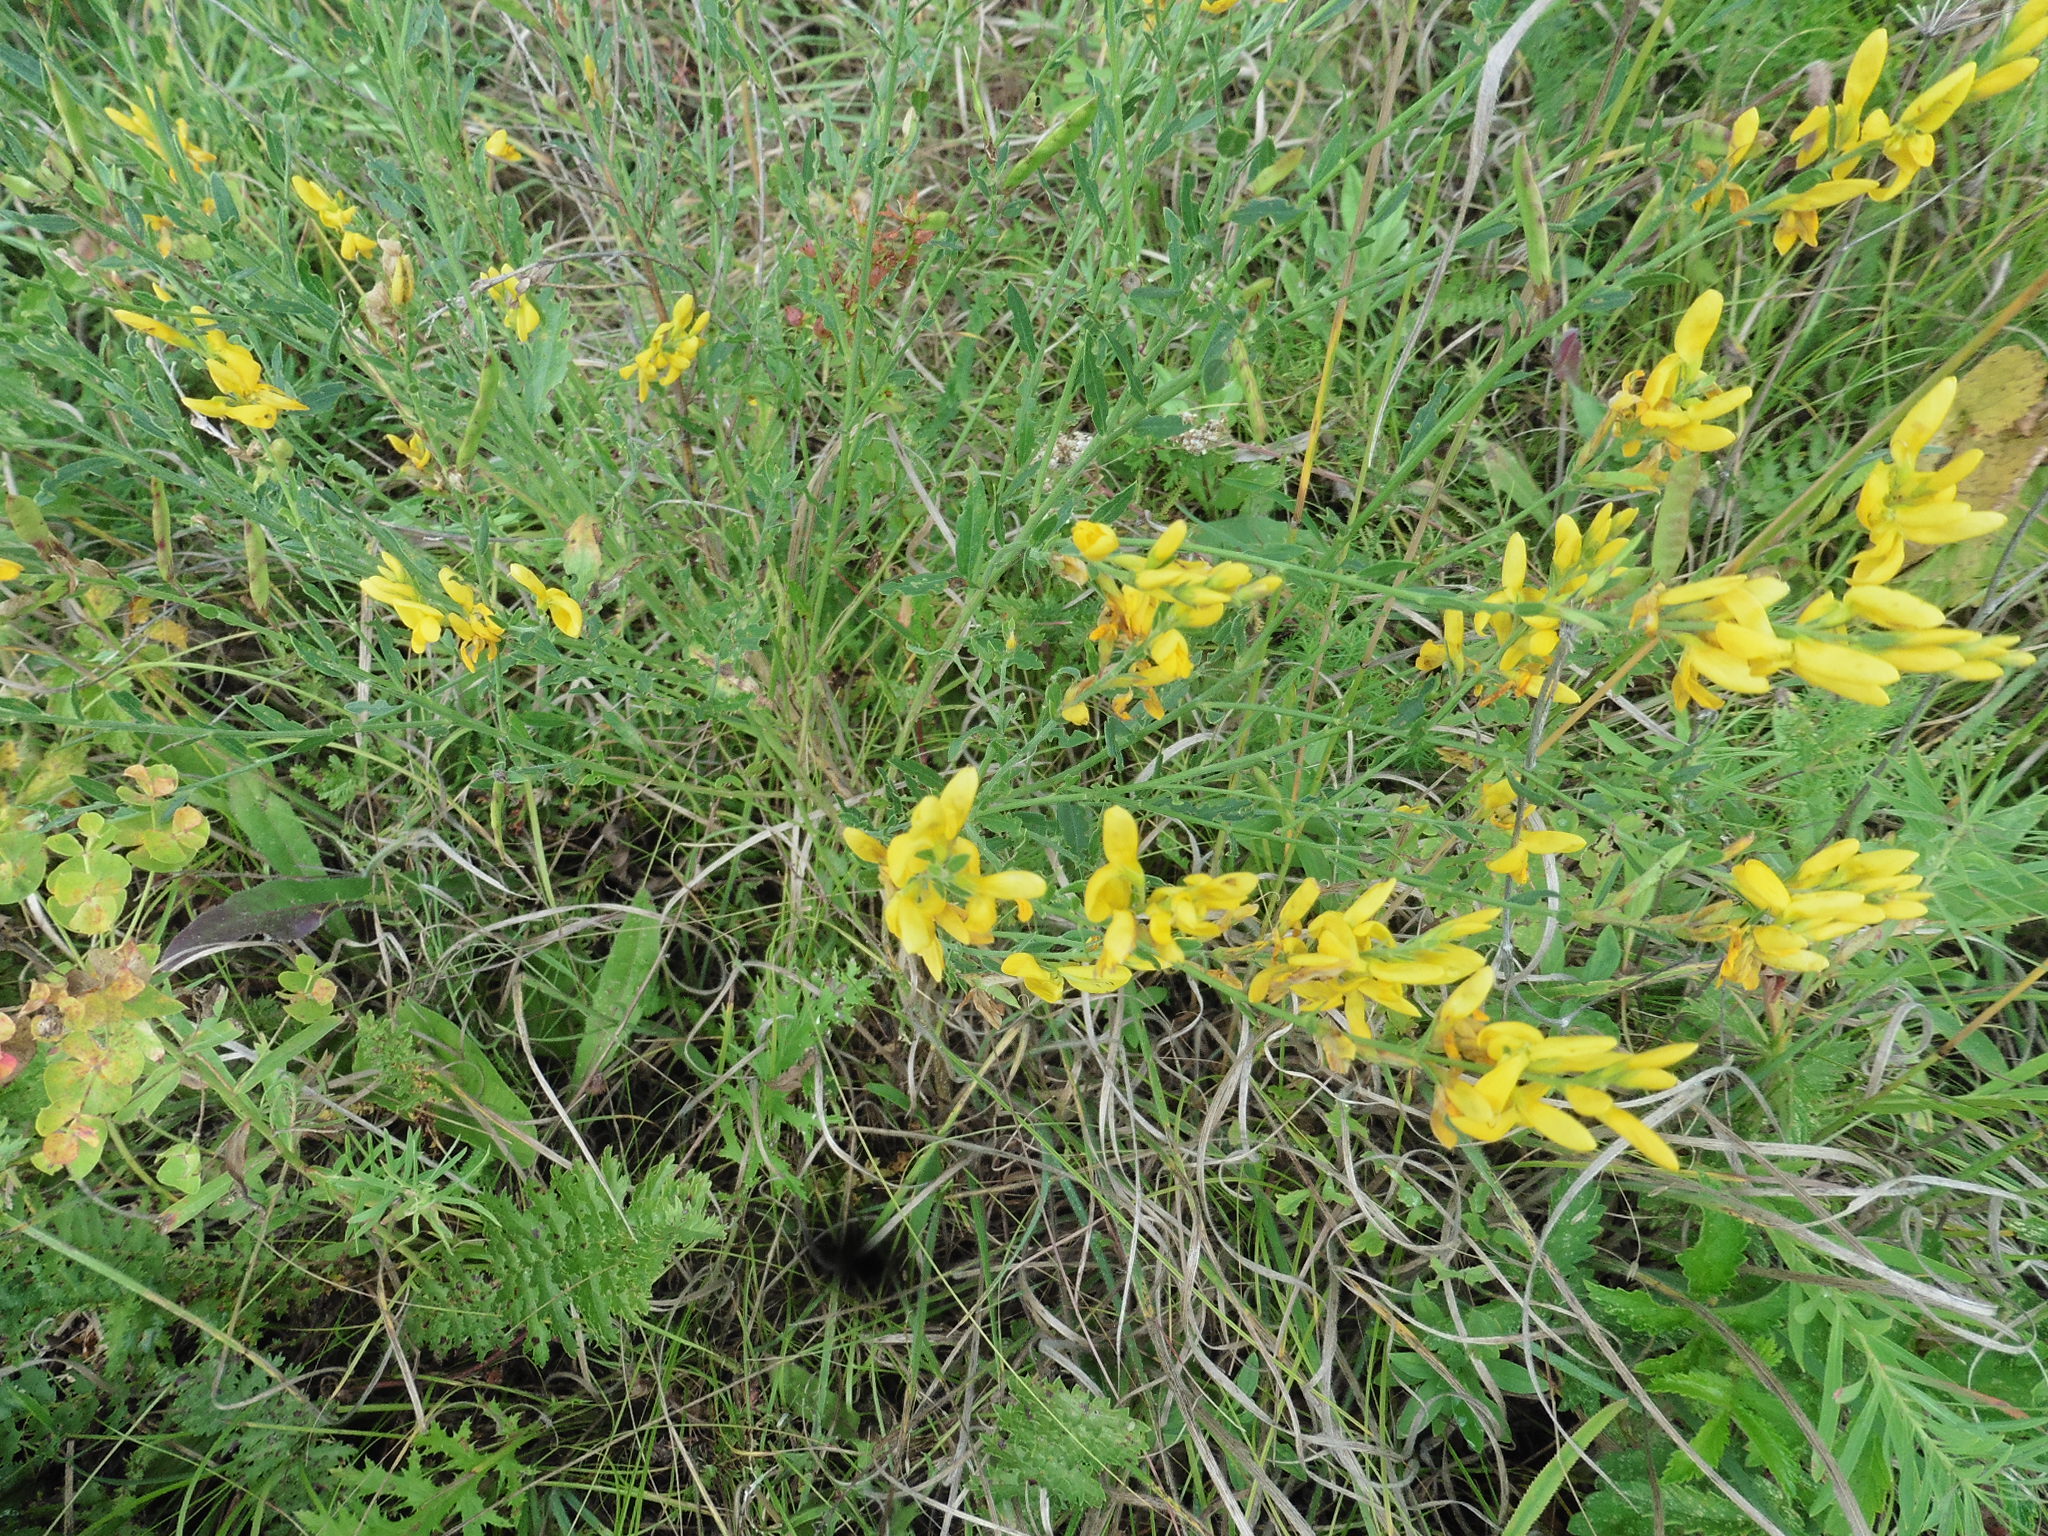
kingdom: Plantae
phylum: Tracheophyta
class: Magnoliopsida
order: Fabales
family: Fabaceae
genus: Genista
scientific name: Genista tinctoria
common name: Dyer's greenweed
